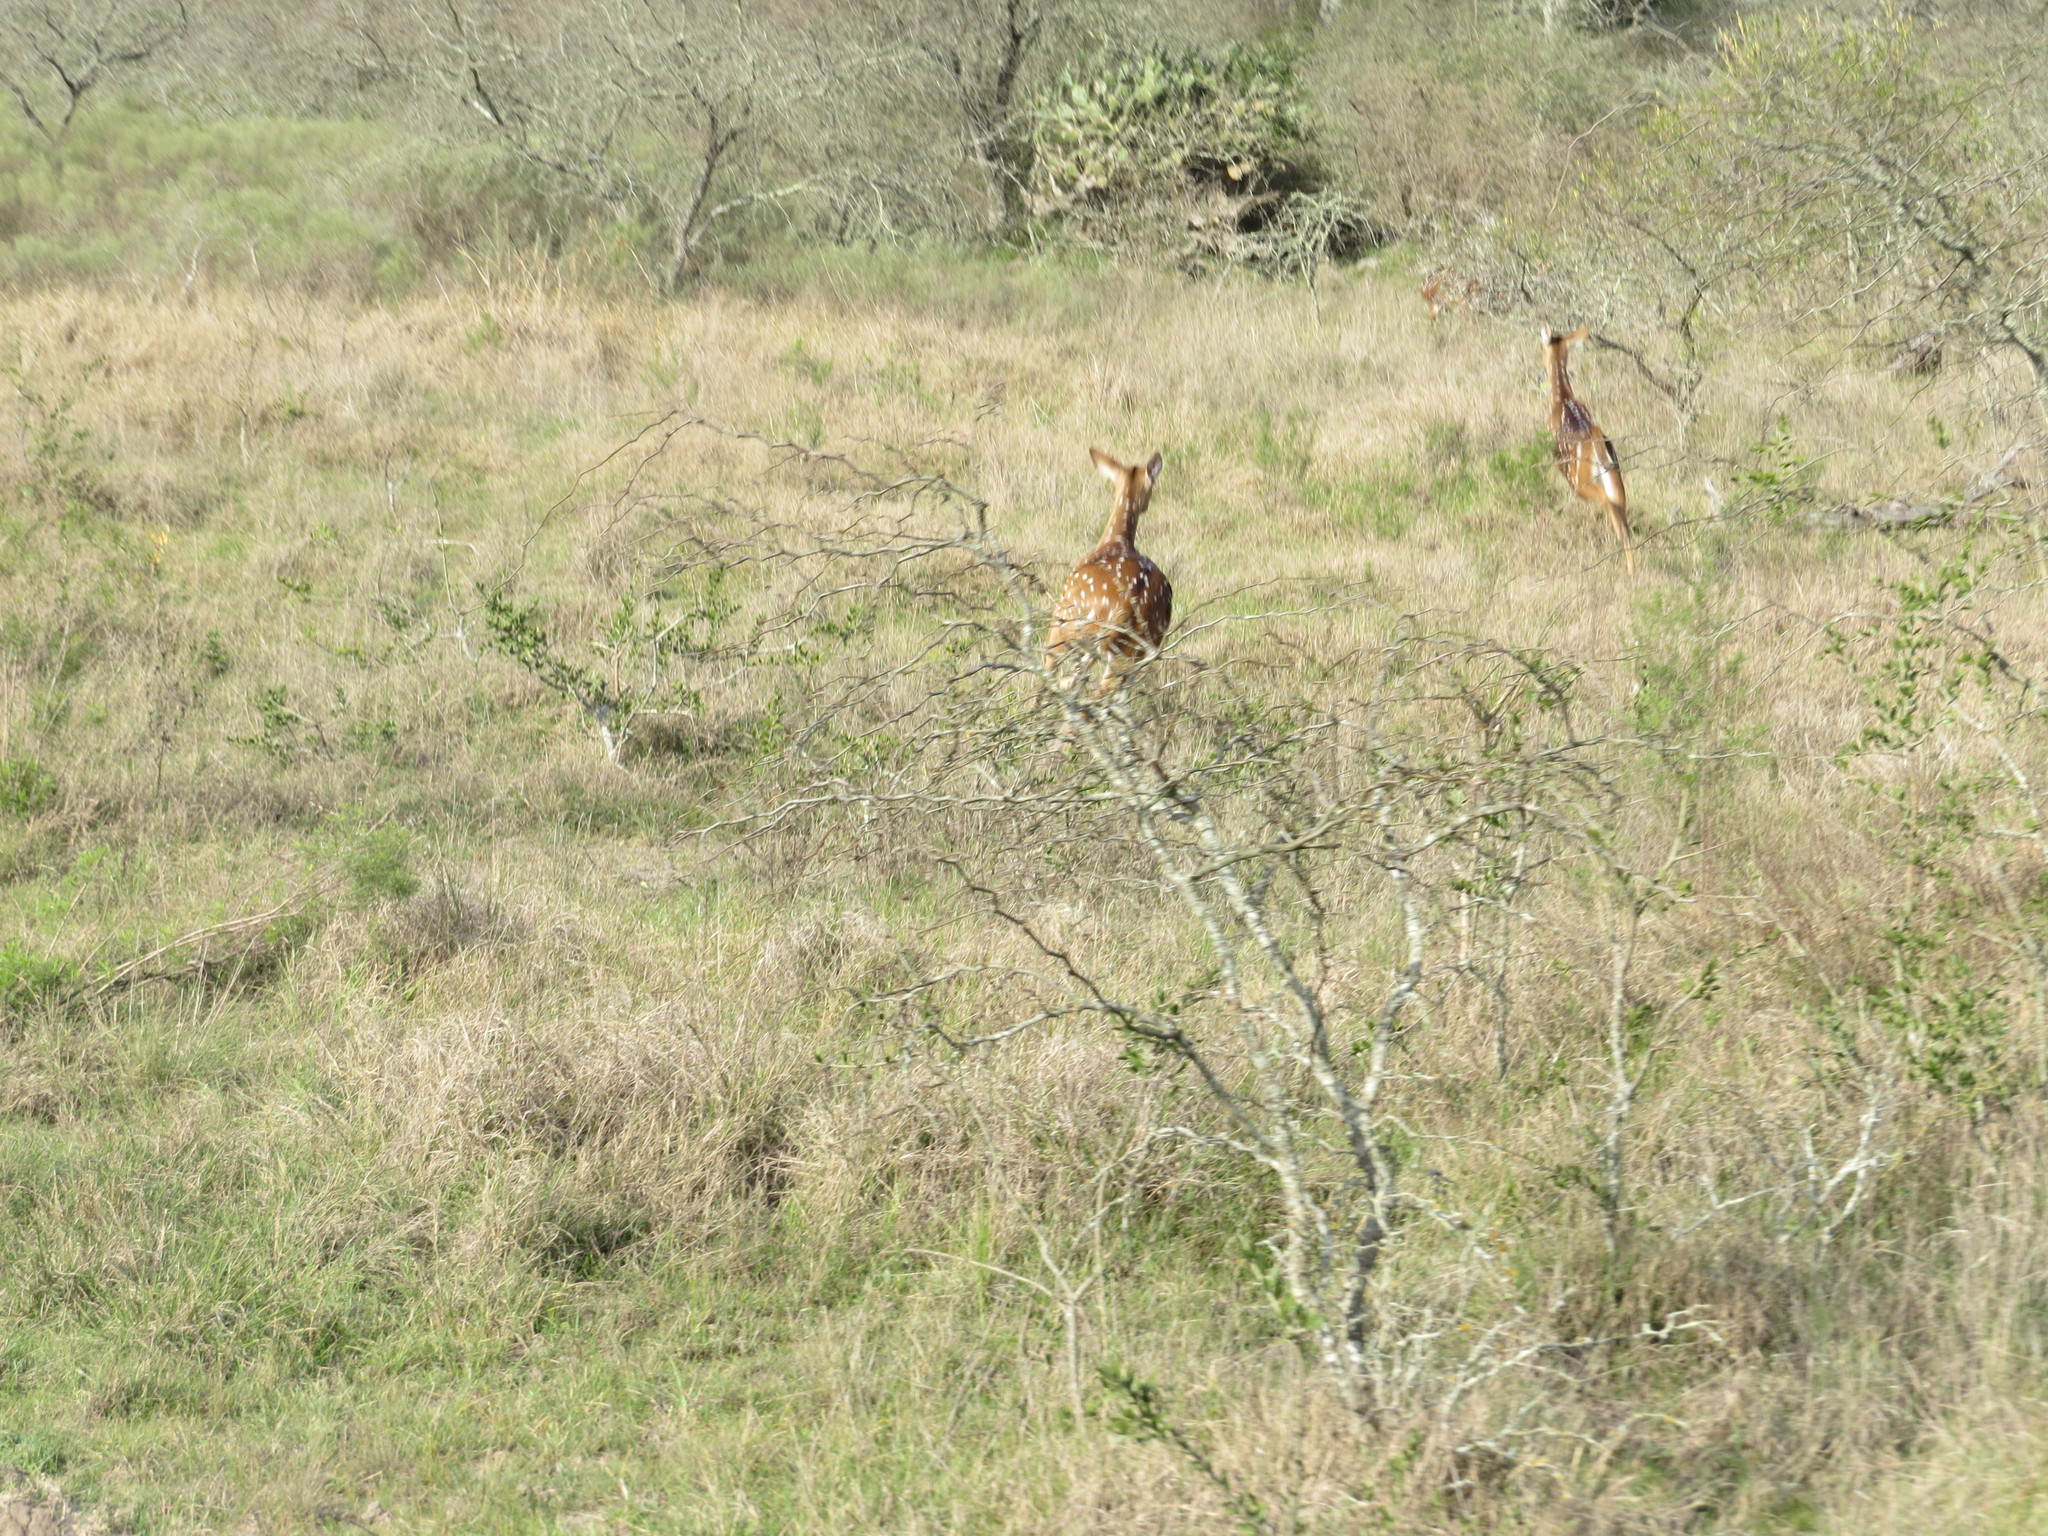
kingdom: Animalia
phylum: Chordata
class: Mammalia
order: Artiodactyla
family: Cervidae
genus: Axis
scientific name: Axis axis
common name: Chital
